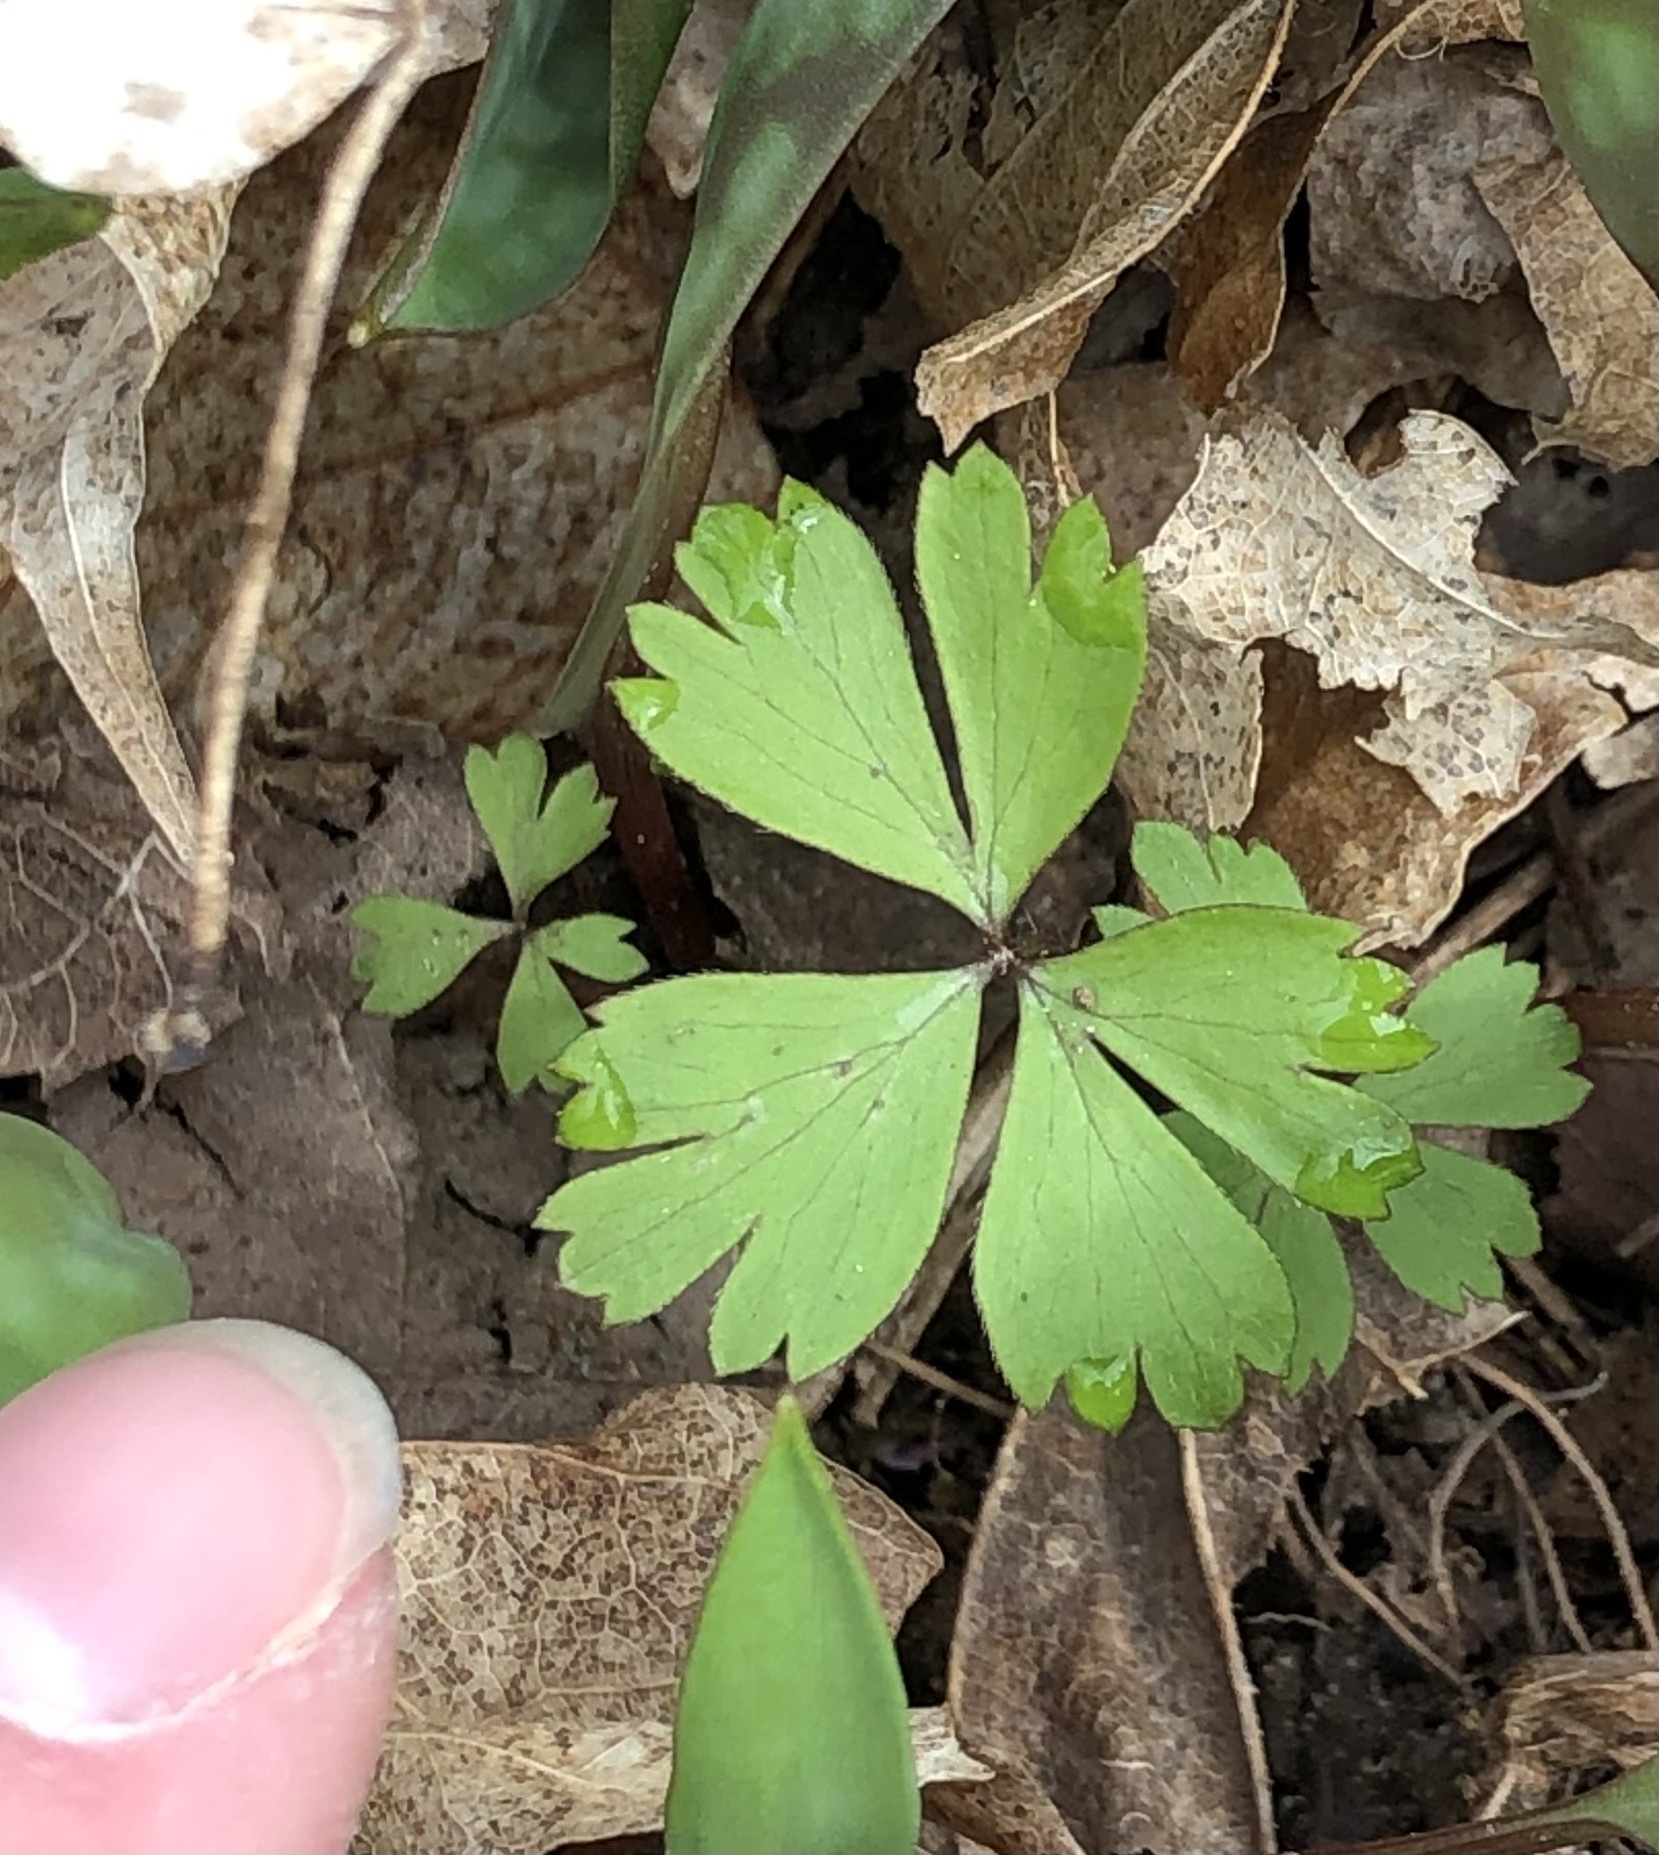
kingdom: Plantae
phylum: Tracheophyta
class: Magnoliopsida
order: Ranunculales
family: Ranunculaceae
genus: Anemone
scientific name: Anemone quinquefolia
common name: Wood anemone
